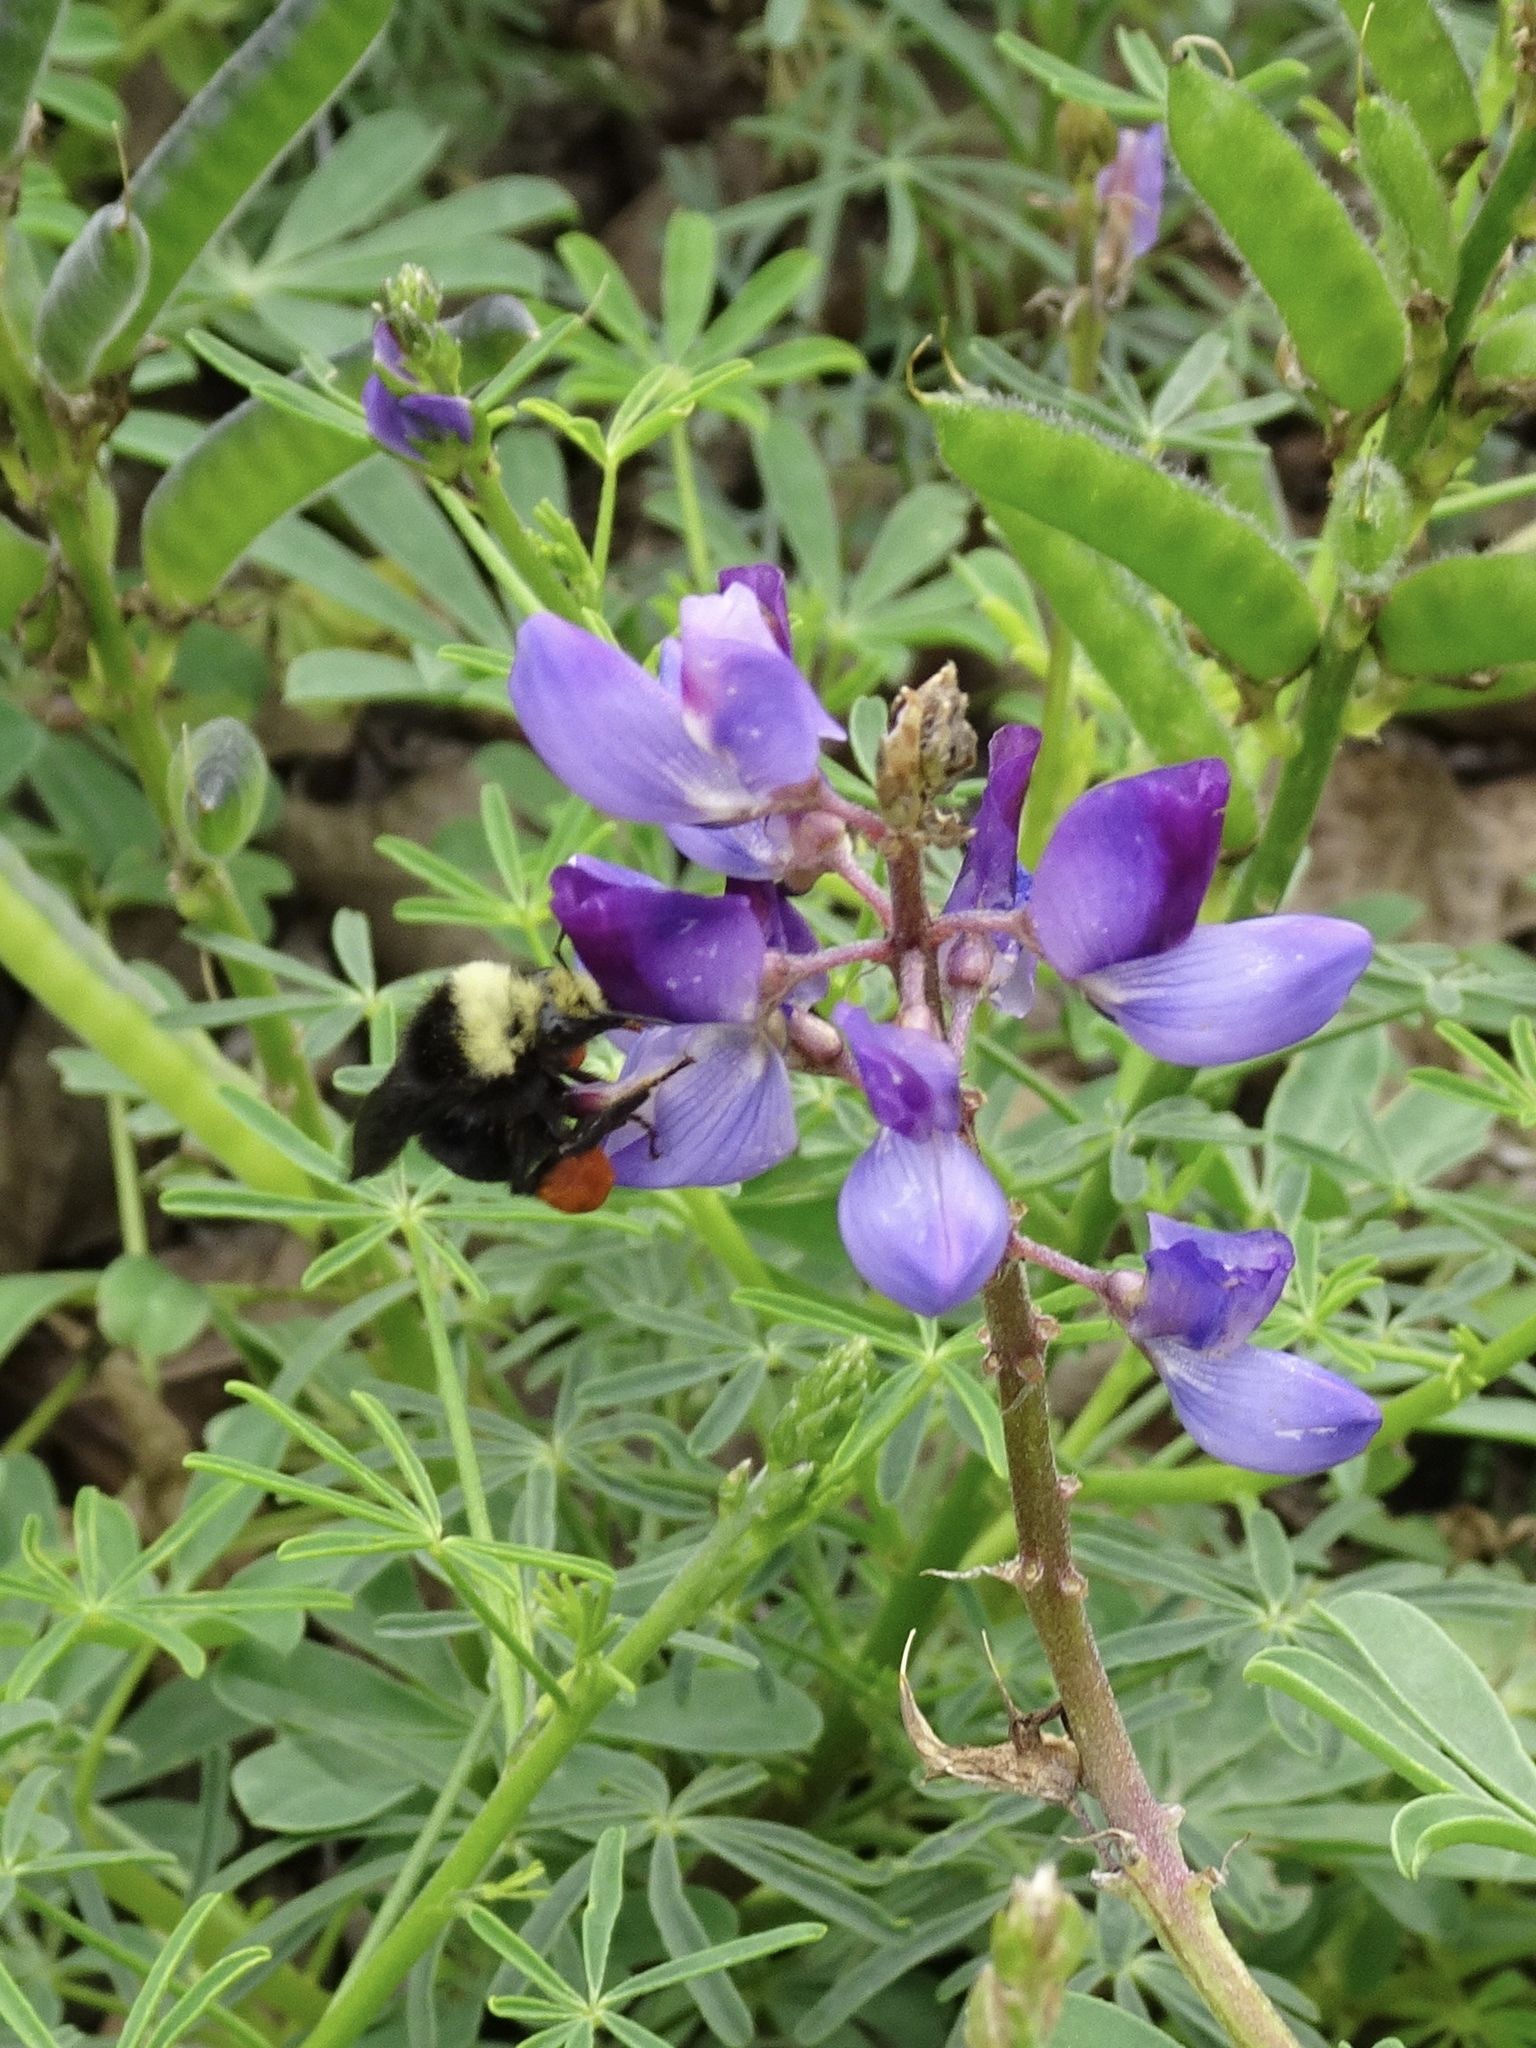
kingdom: Animalia
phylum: Arthropoda
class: Insecta
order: Hymenoptera
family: Apidae
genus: Bombus
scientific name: Bombus vosnesenskii
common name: Vosnesensky bumble bee
